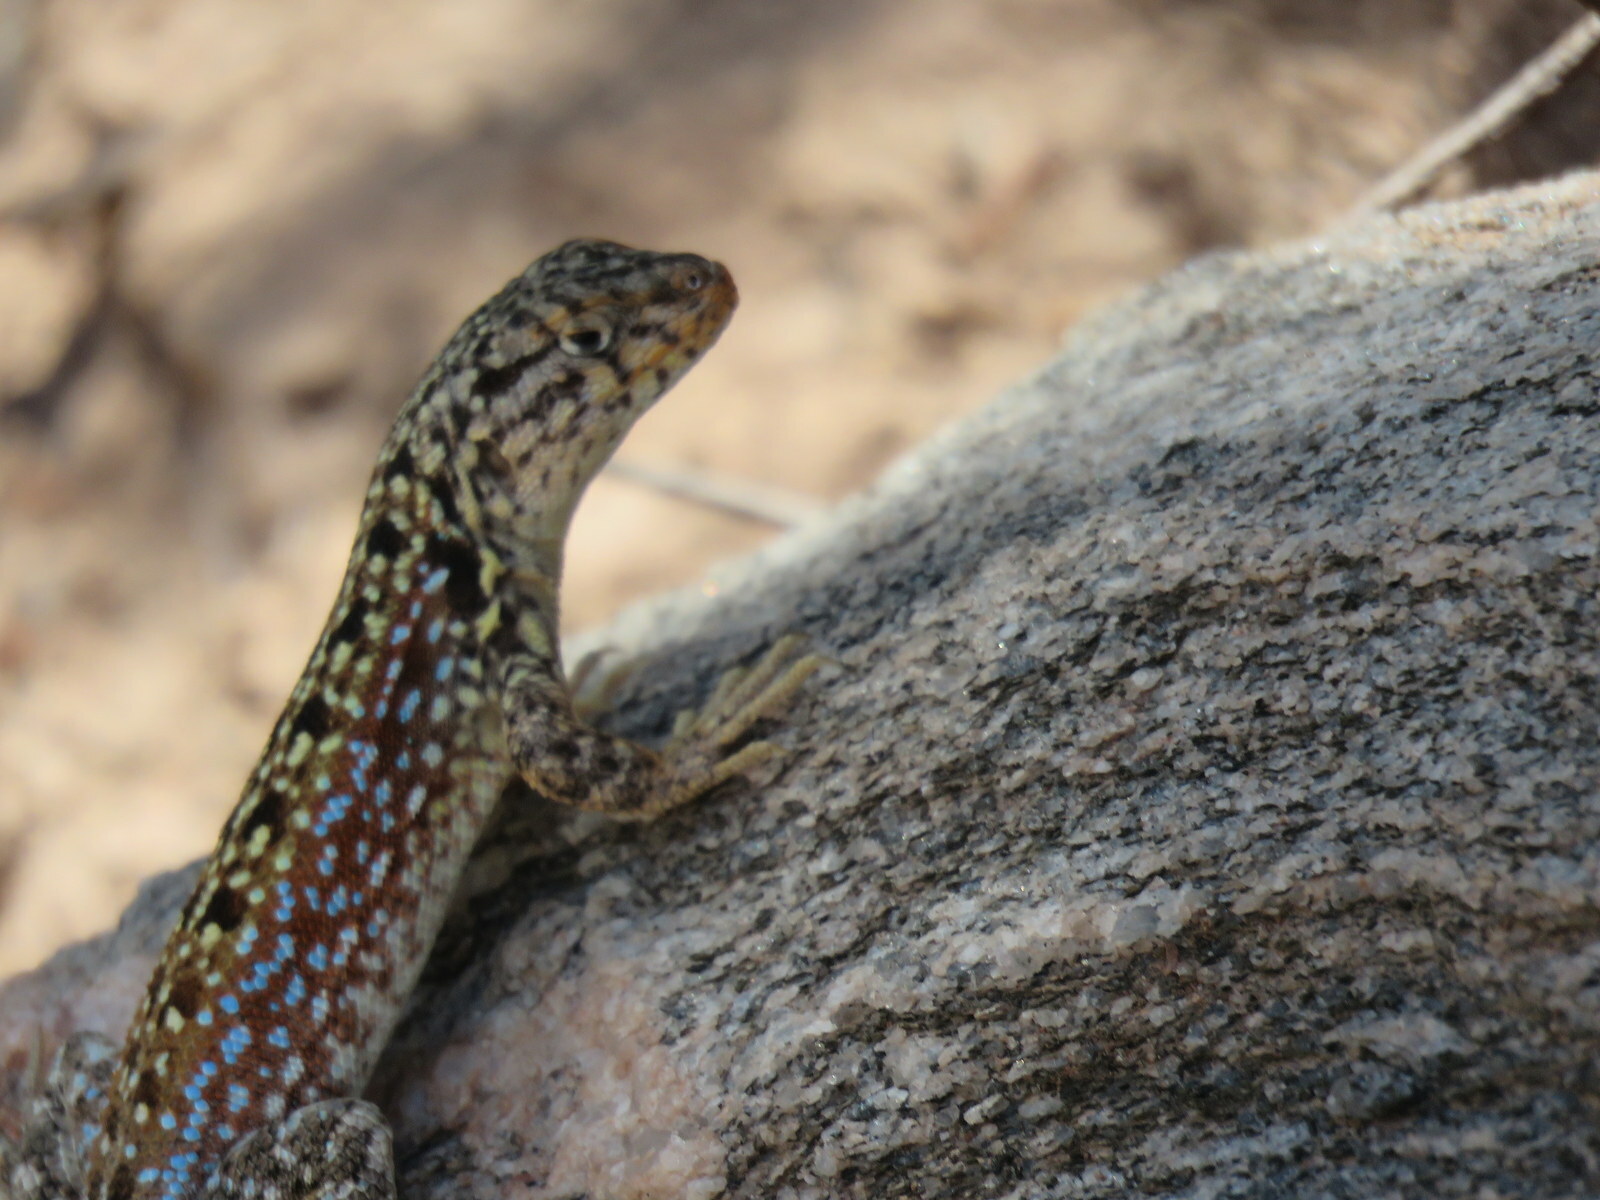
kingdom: Animalia
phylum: Chordata
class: Squamata
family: Liolaemidae
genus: Liolaemus
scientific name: Liolaemus quilmes
